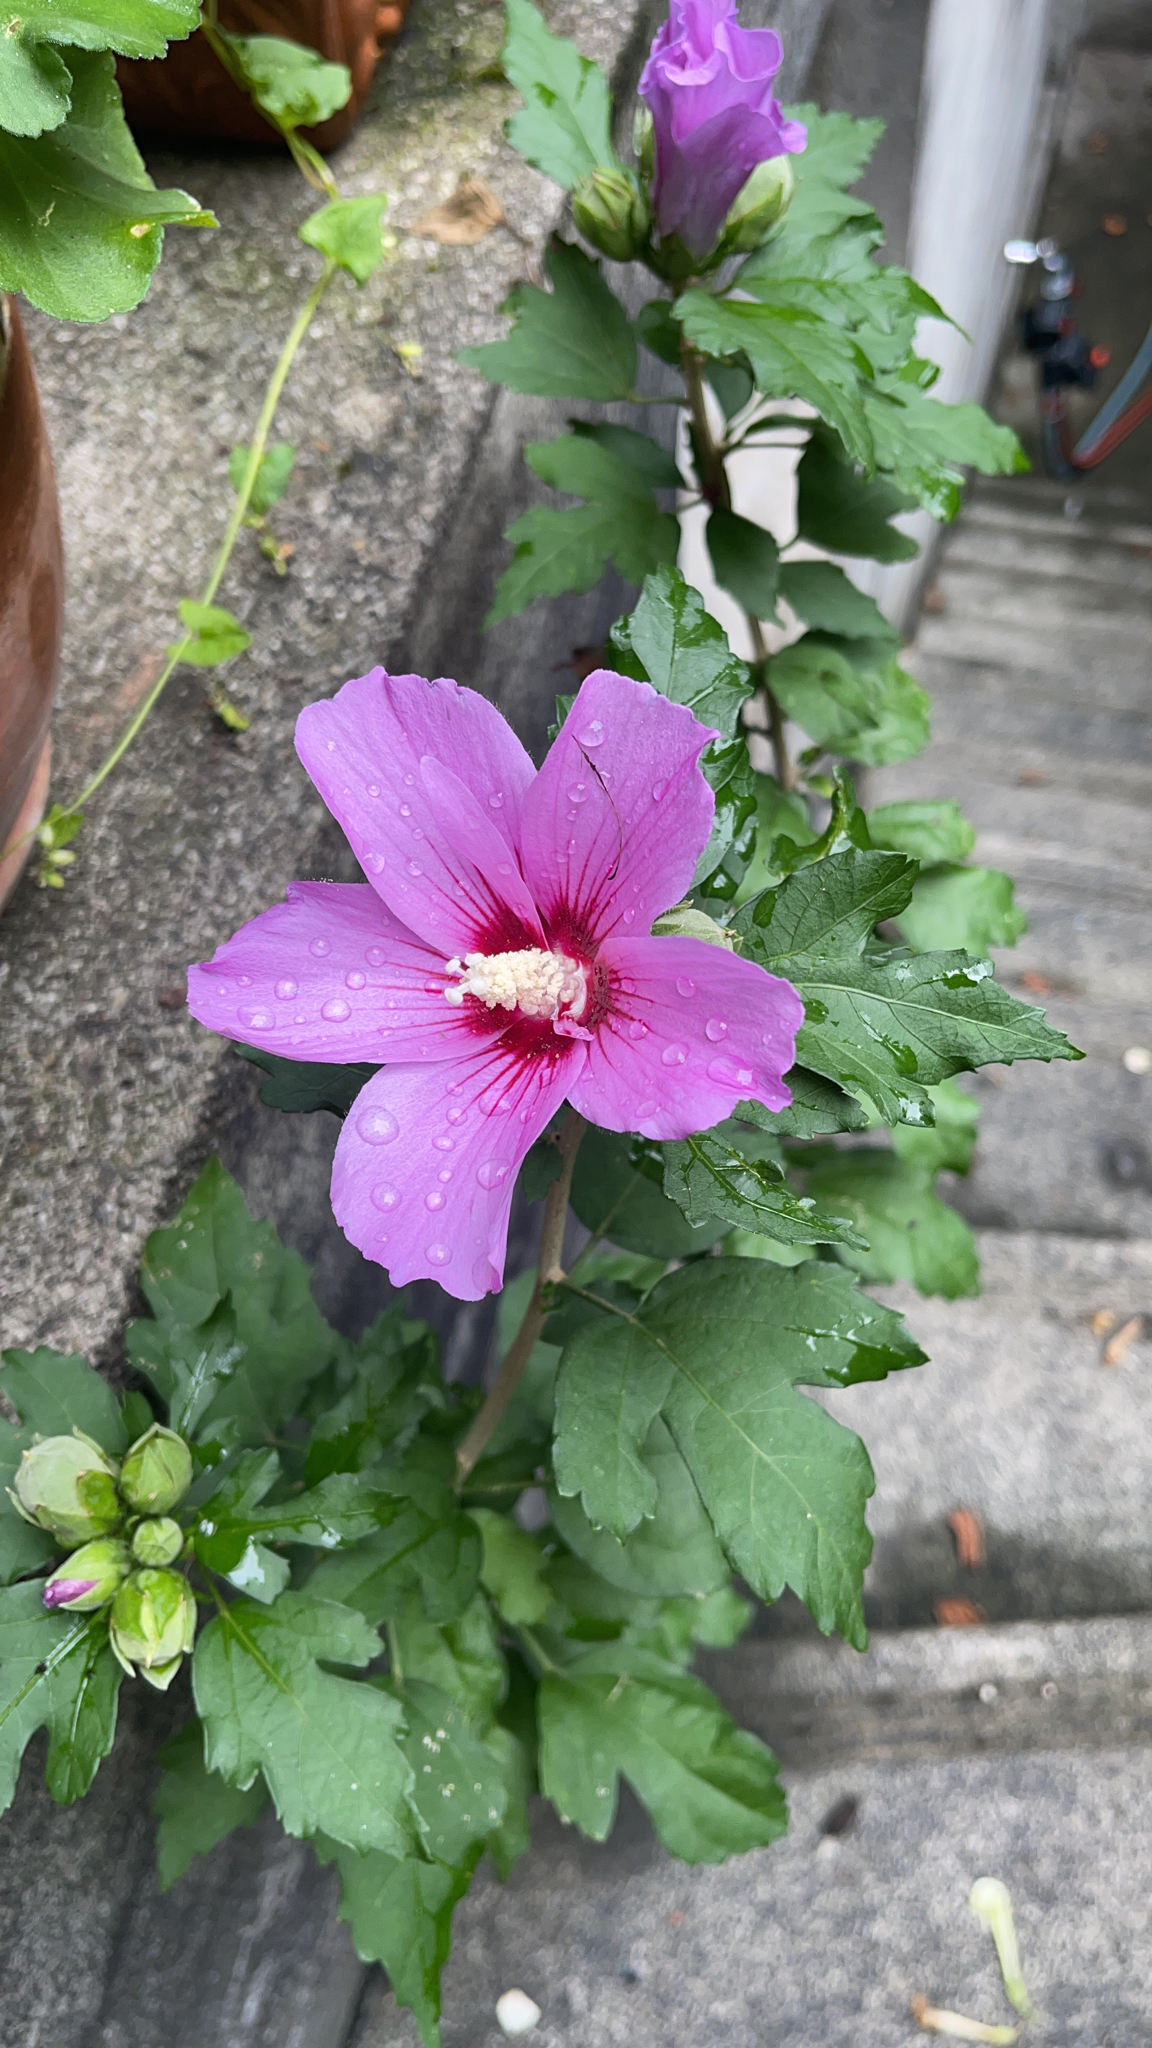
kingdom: Plantae
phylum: Tracheophyta
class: Magnoliopsida
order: Malvales
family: Malvaceae
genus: Hibiscus
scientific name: Hibiscus syriacus
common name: Syrian ketmia
